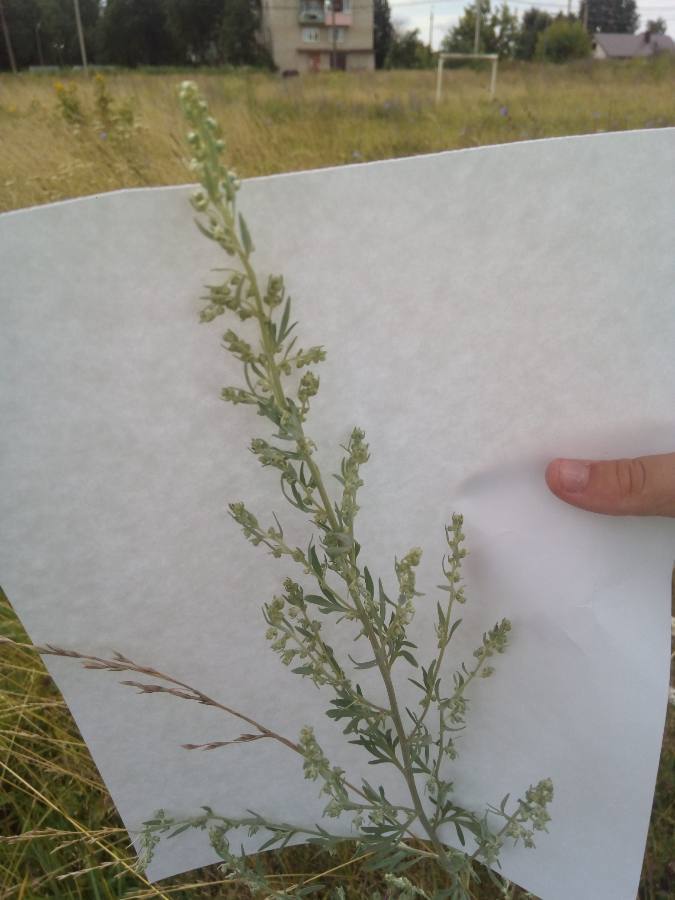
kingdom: Plantae
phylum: Tracheophyta
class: Magnoliopsida
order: Asterales
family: Asteraceae
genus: Artemisia
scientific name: Artemisia absinthium
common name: Wormwood
